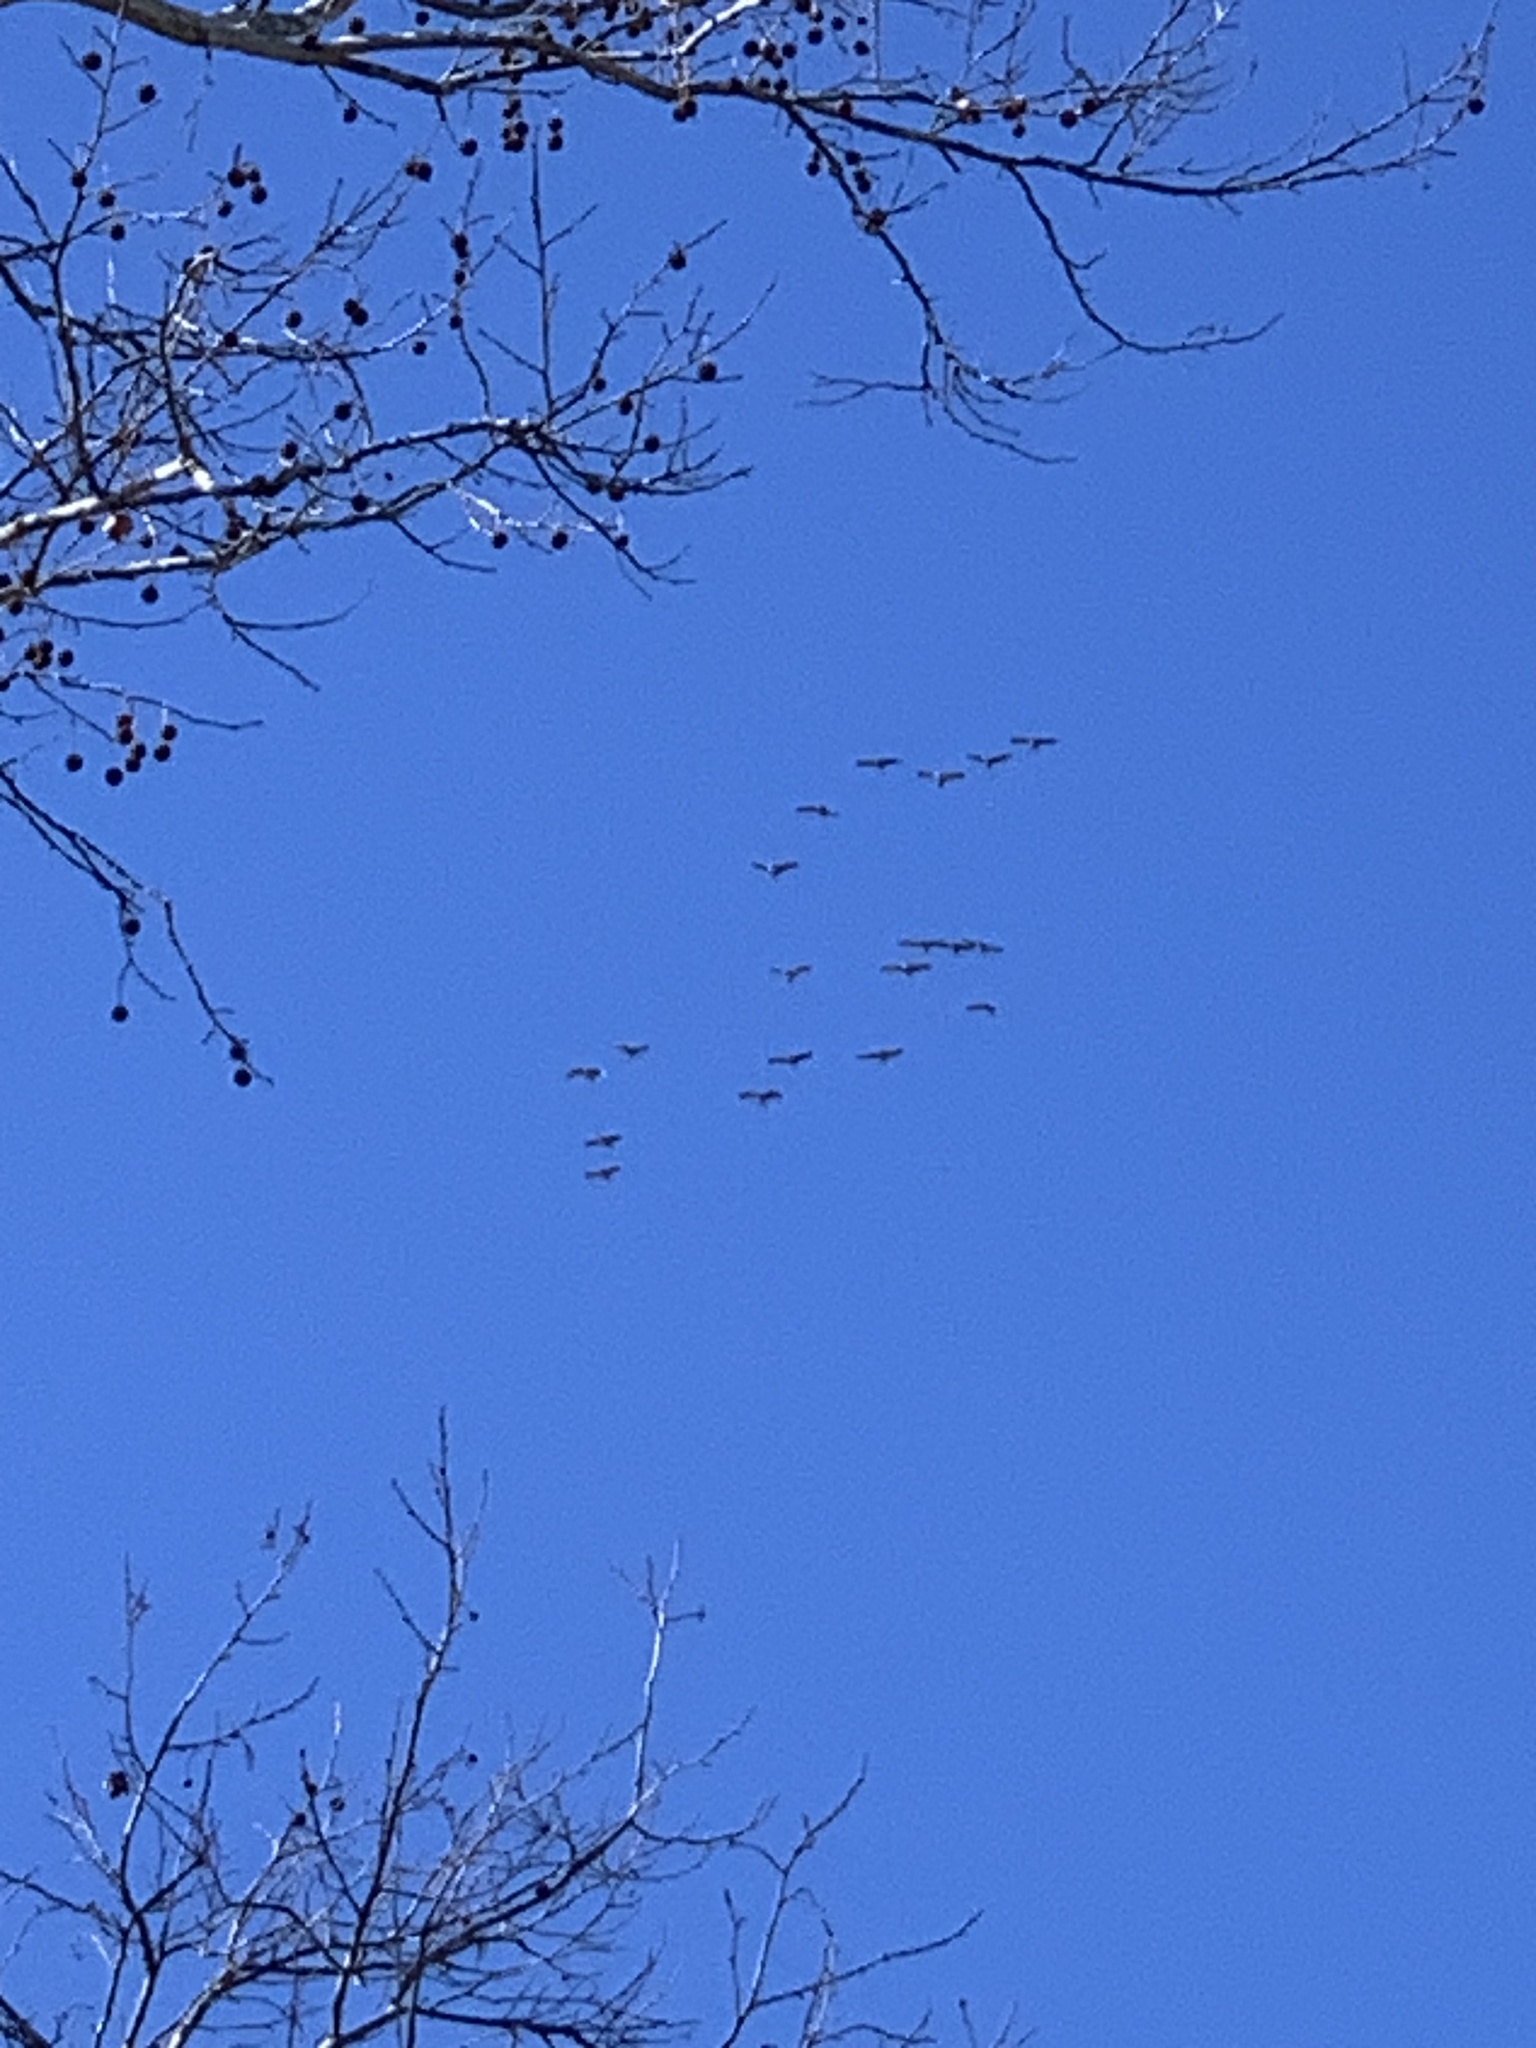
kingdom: Animalia
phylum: Chordata
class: Aves
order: Gruiformes
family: Gruidae
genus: Grus
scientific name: Grus canadensis
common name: Sandhill crane
